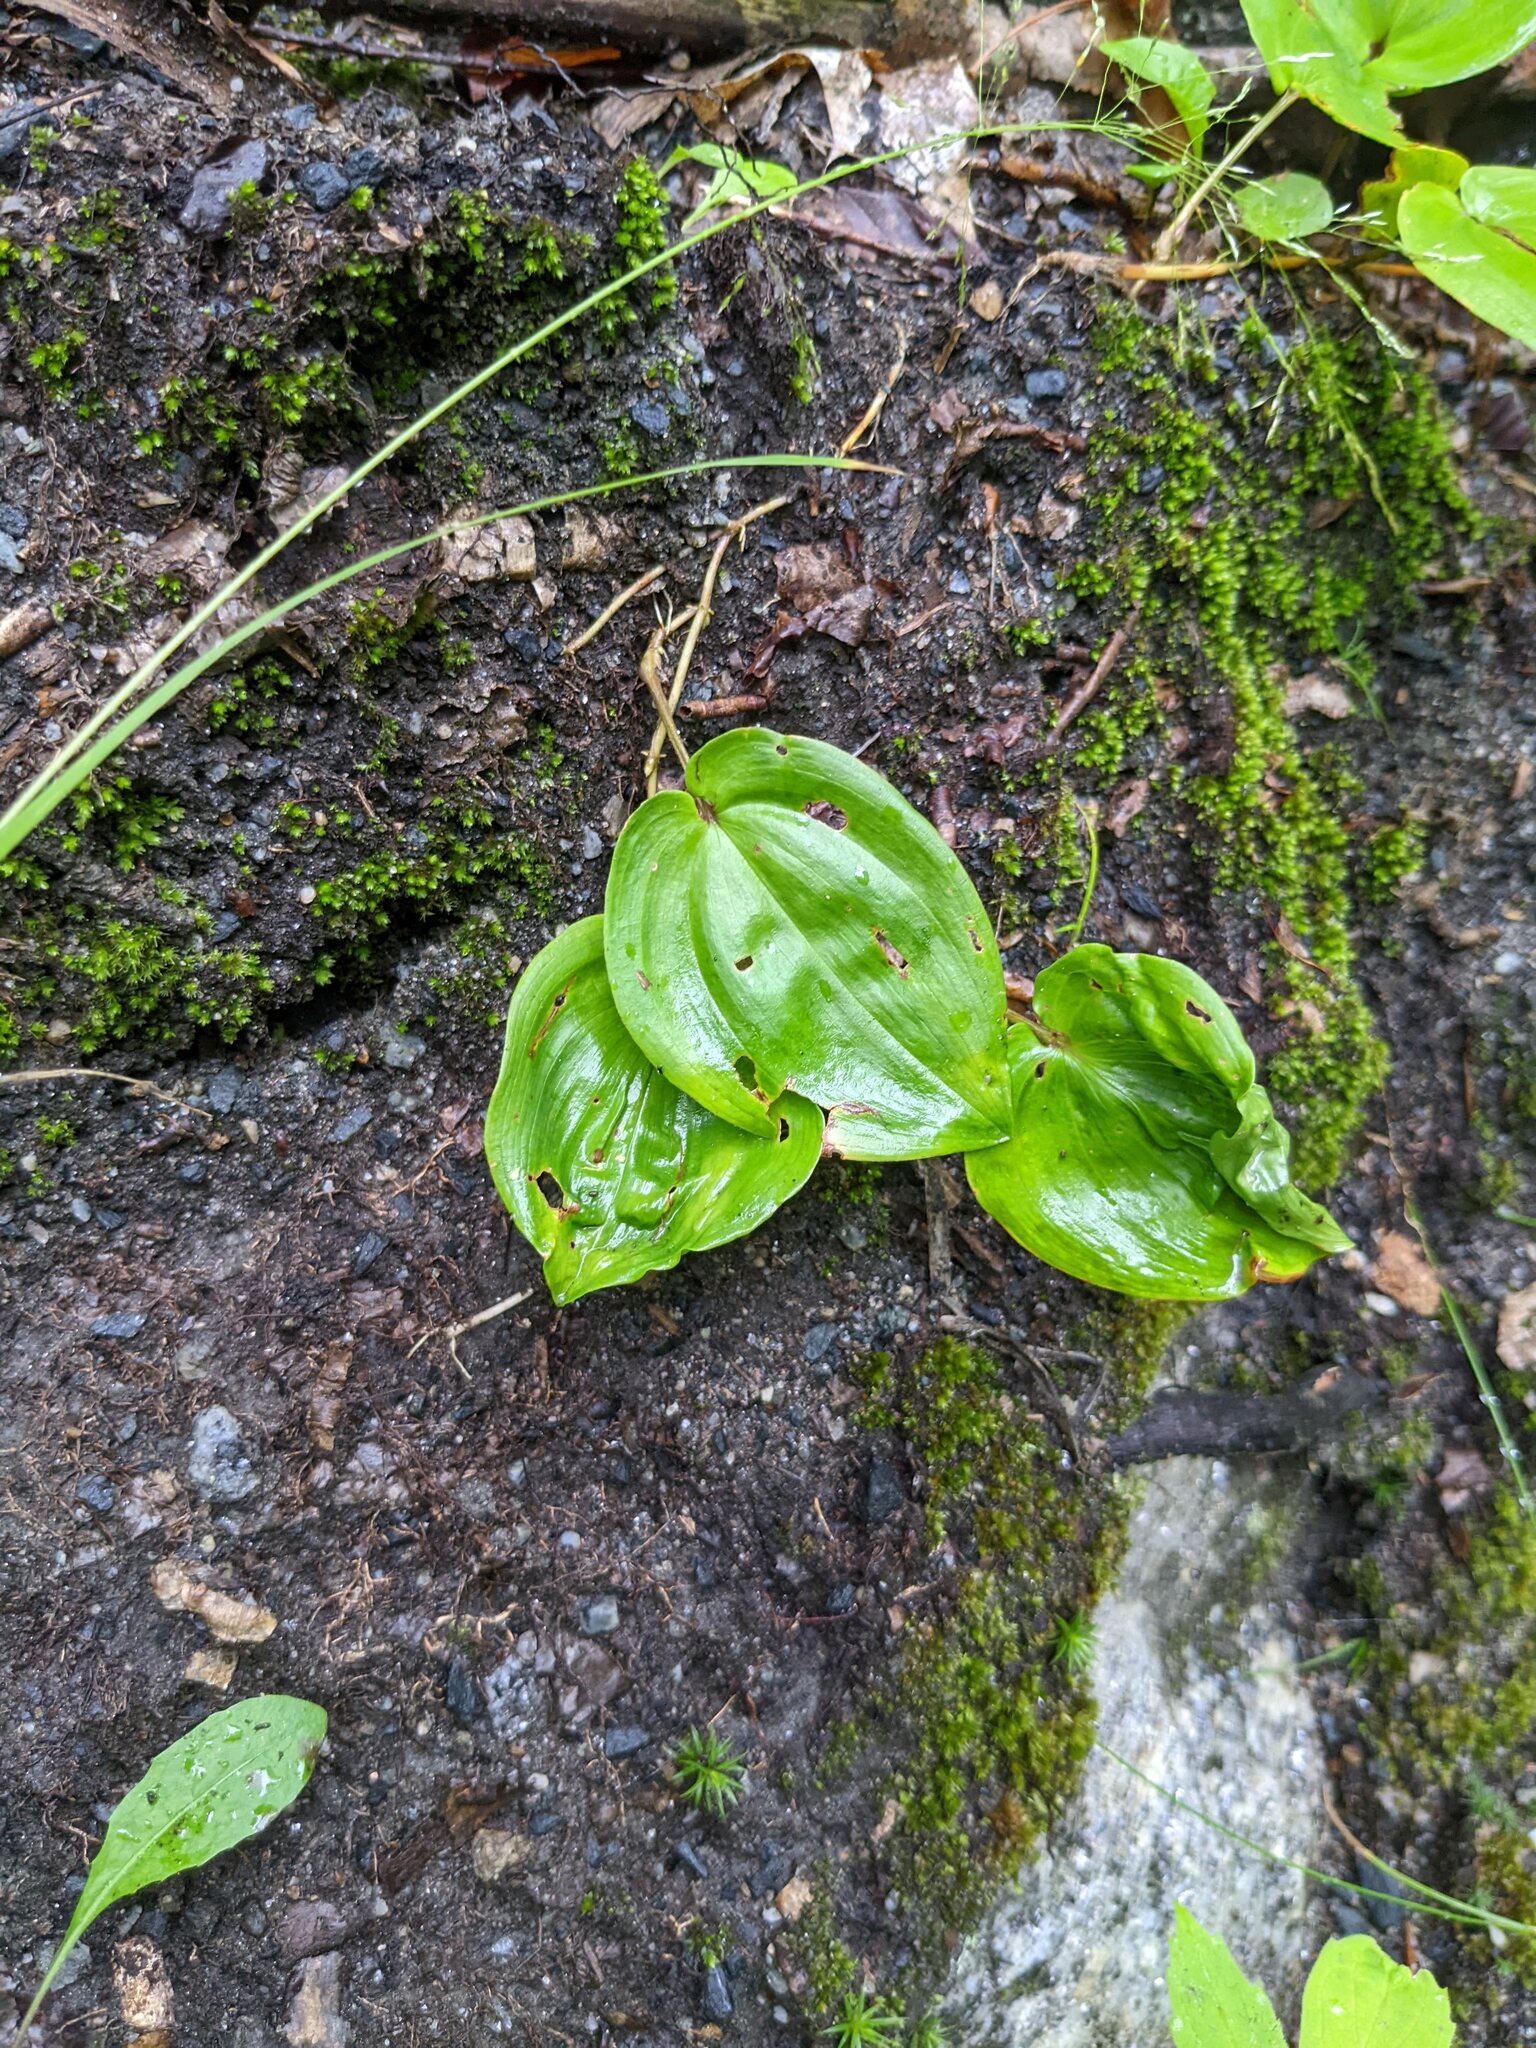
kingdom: Plantae
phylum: Tracheophyta
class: Liliopsida
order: Asparagales
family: Asparagaceae
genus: Maianthemum
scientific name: Maianthemum canadense
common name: False lily-of-the-valley
